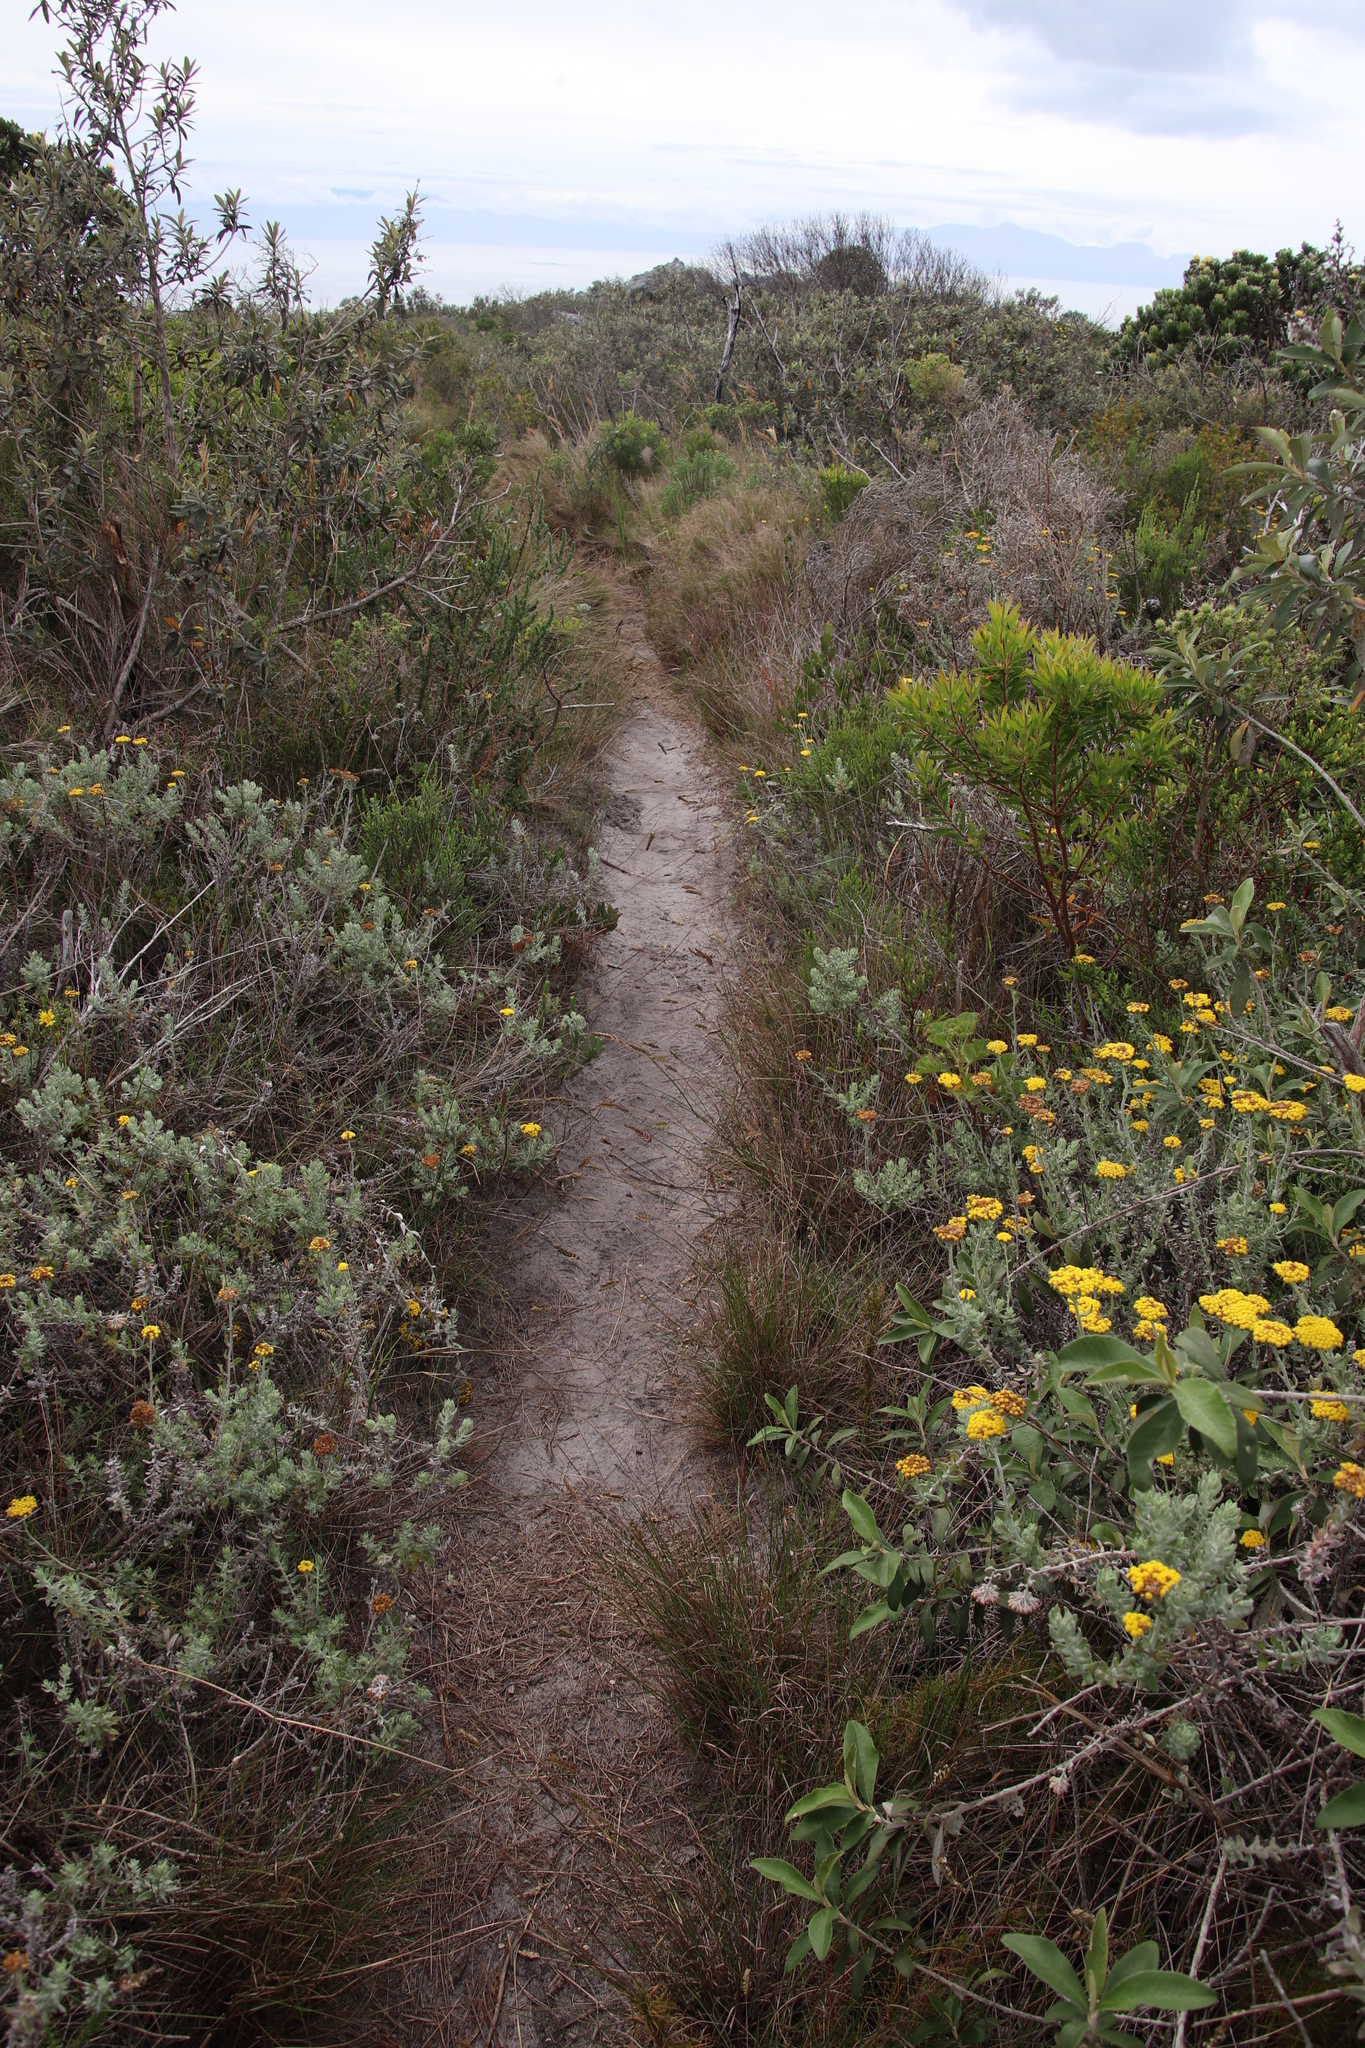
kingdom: Plantae
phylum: Tracheophyta
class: Liliopsida
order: Poales
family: Poaceae
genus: Tribolium
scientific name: Tribolium uniolae
